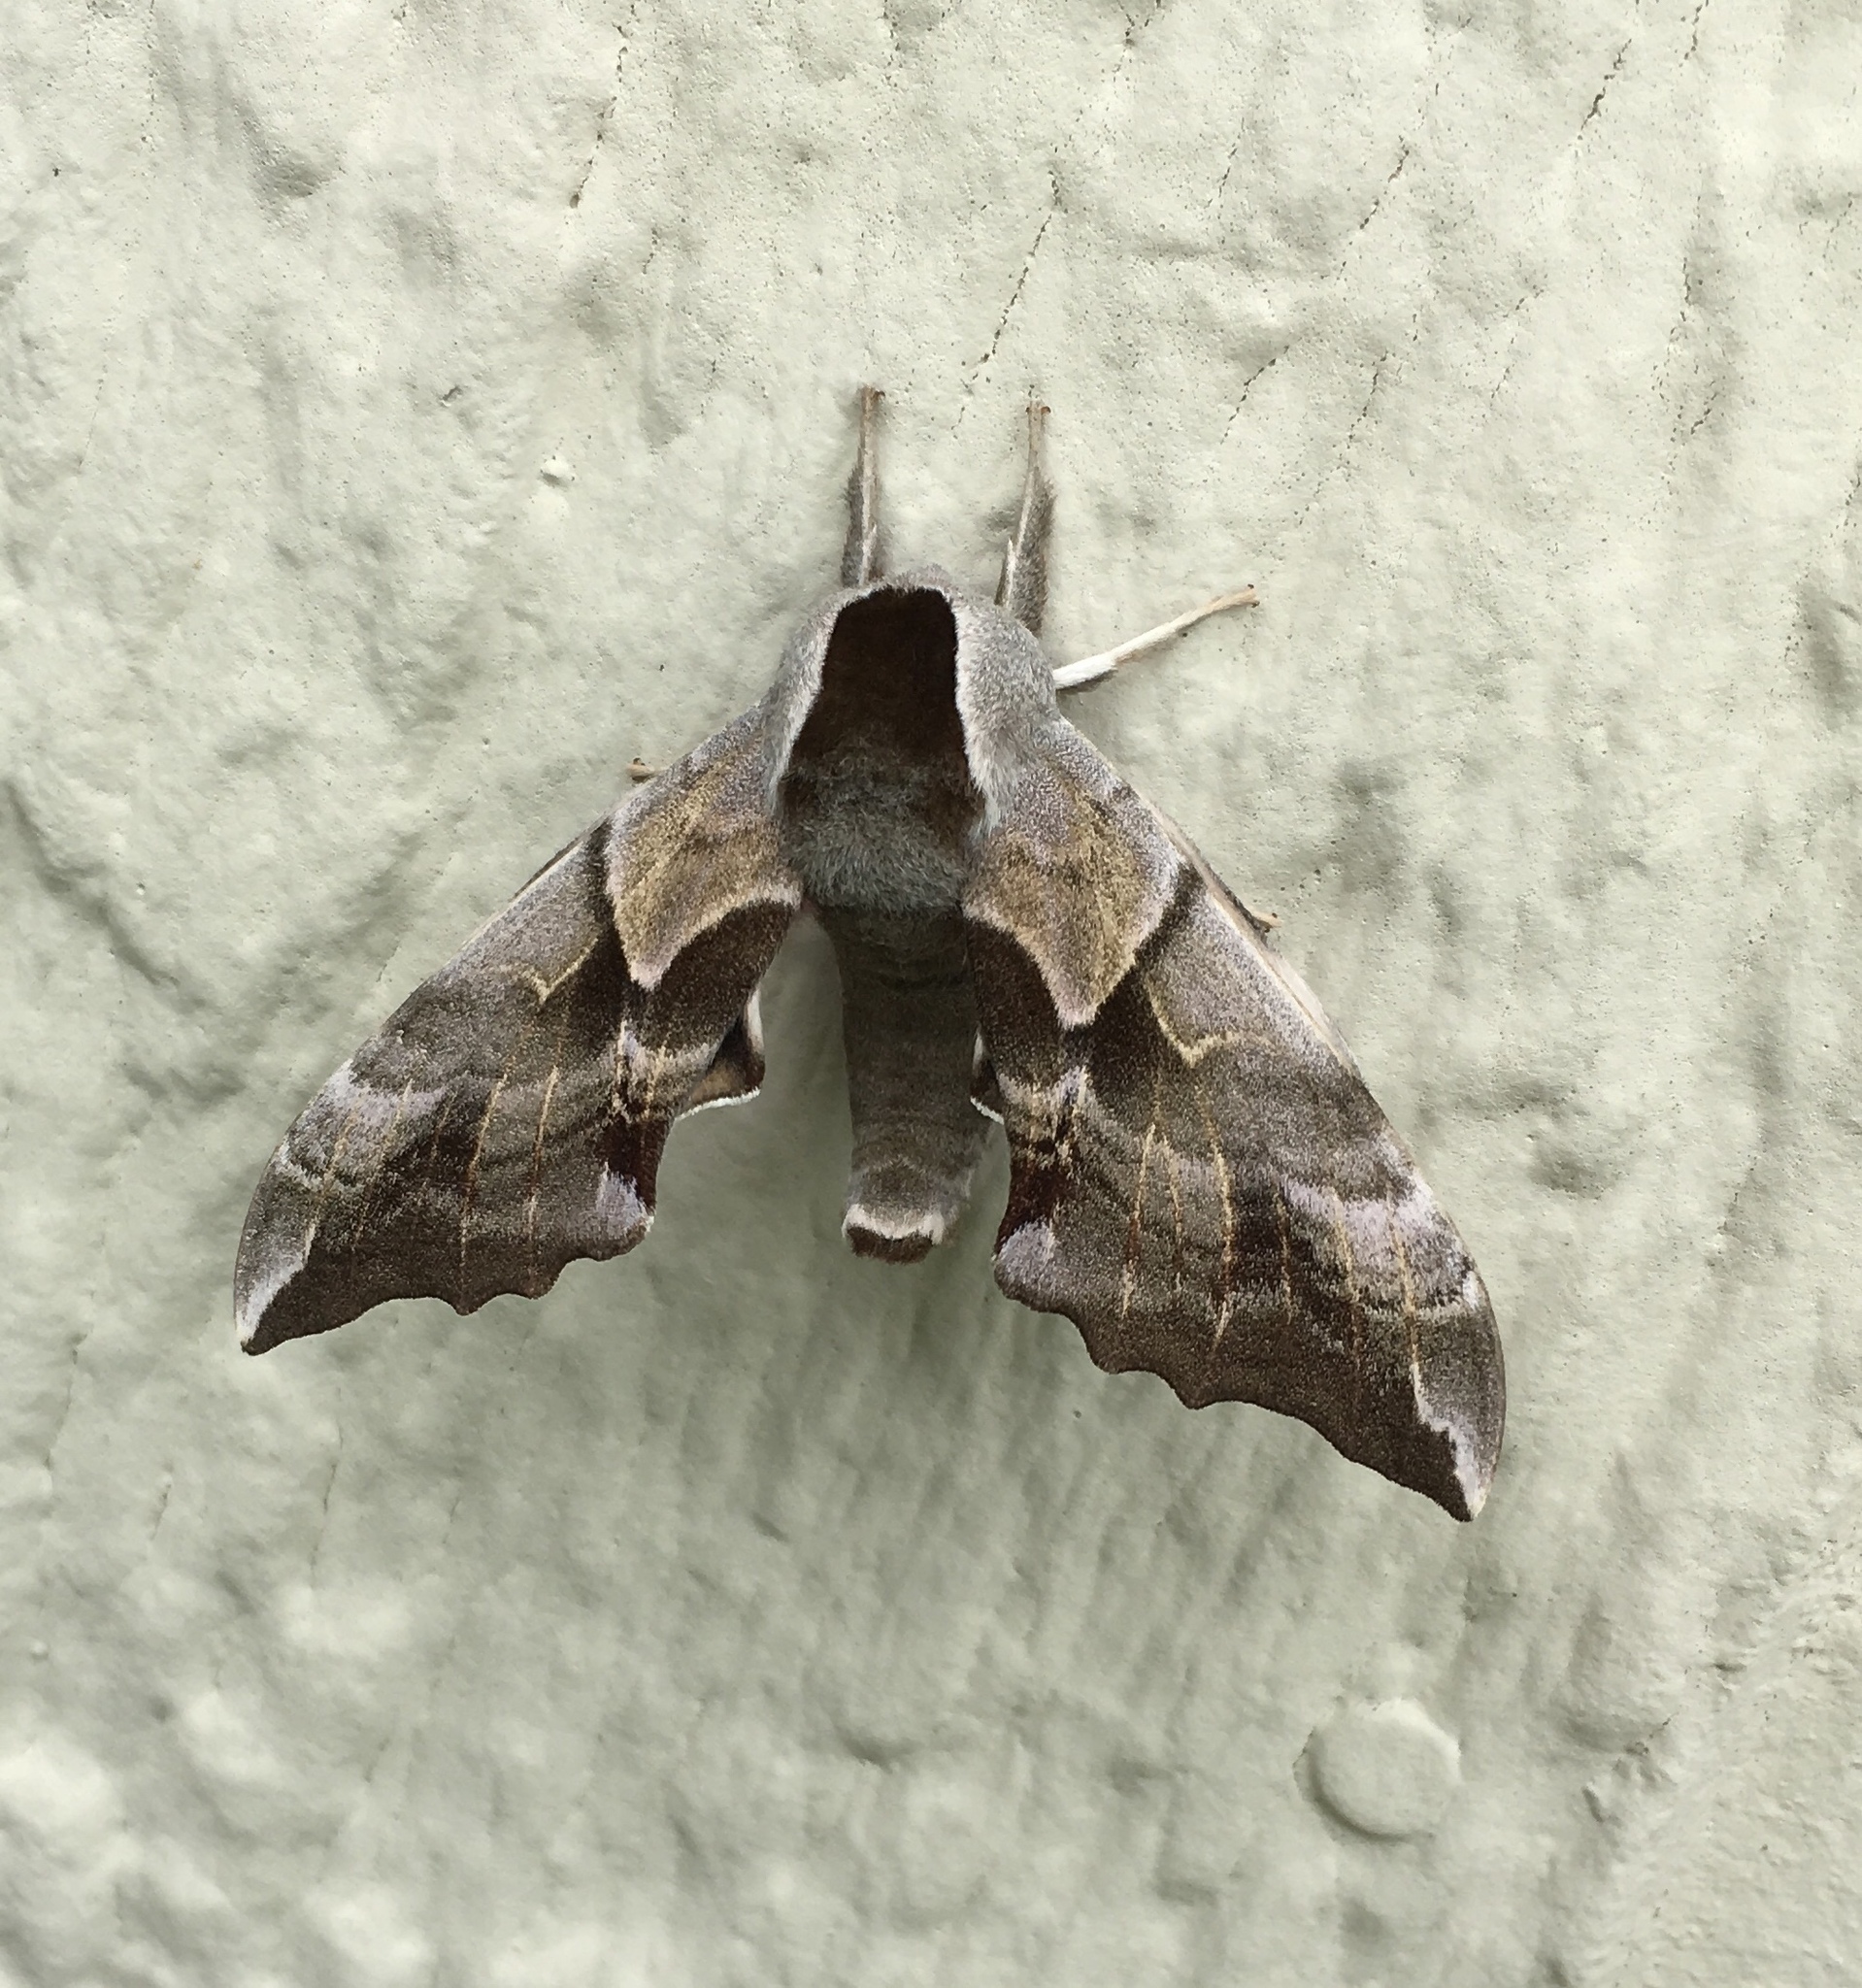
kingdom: Animalia
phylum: Arthropoda
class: Insecta
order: Lepidoptera
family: Sphingidae
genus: Smerinthus
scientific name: Smerinthus cerisyi
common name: Cerisy's sphinx moth
